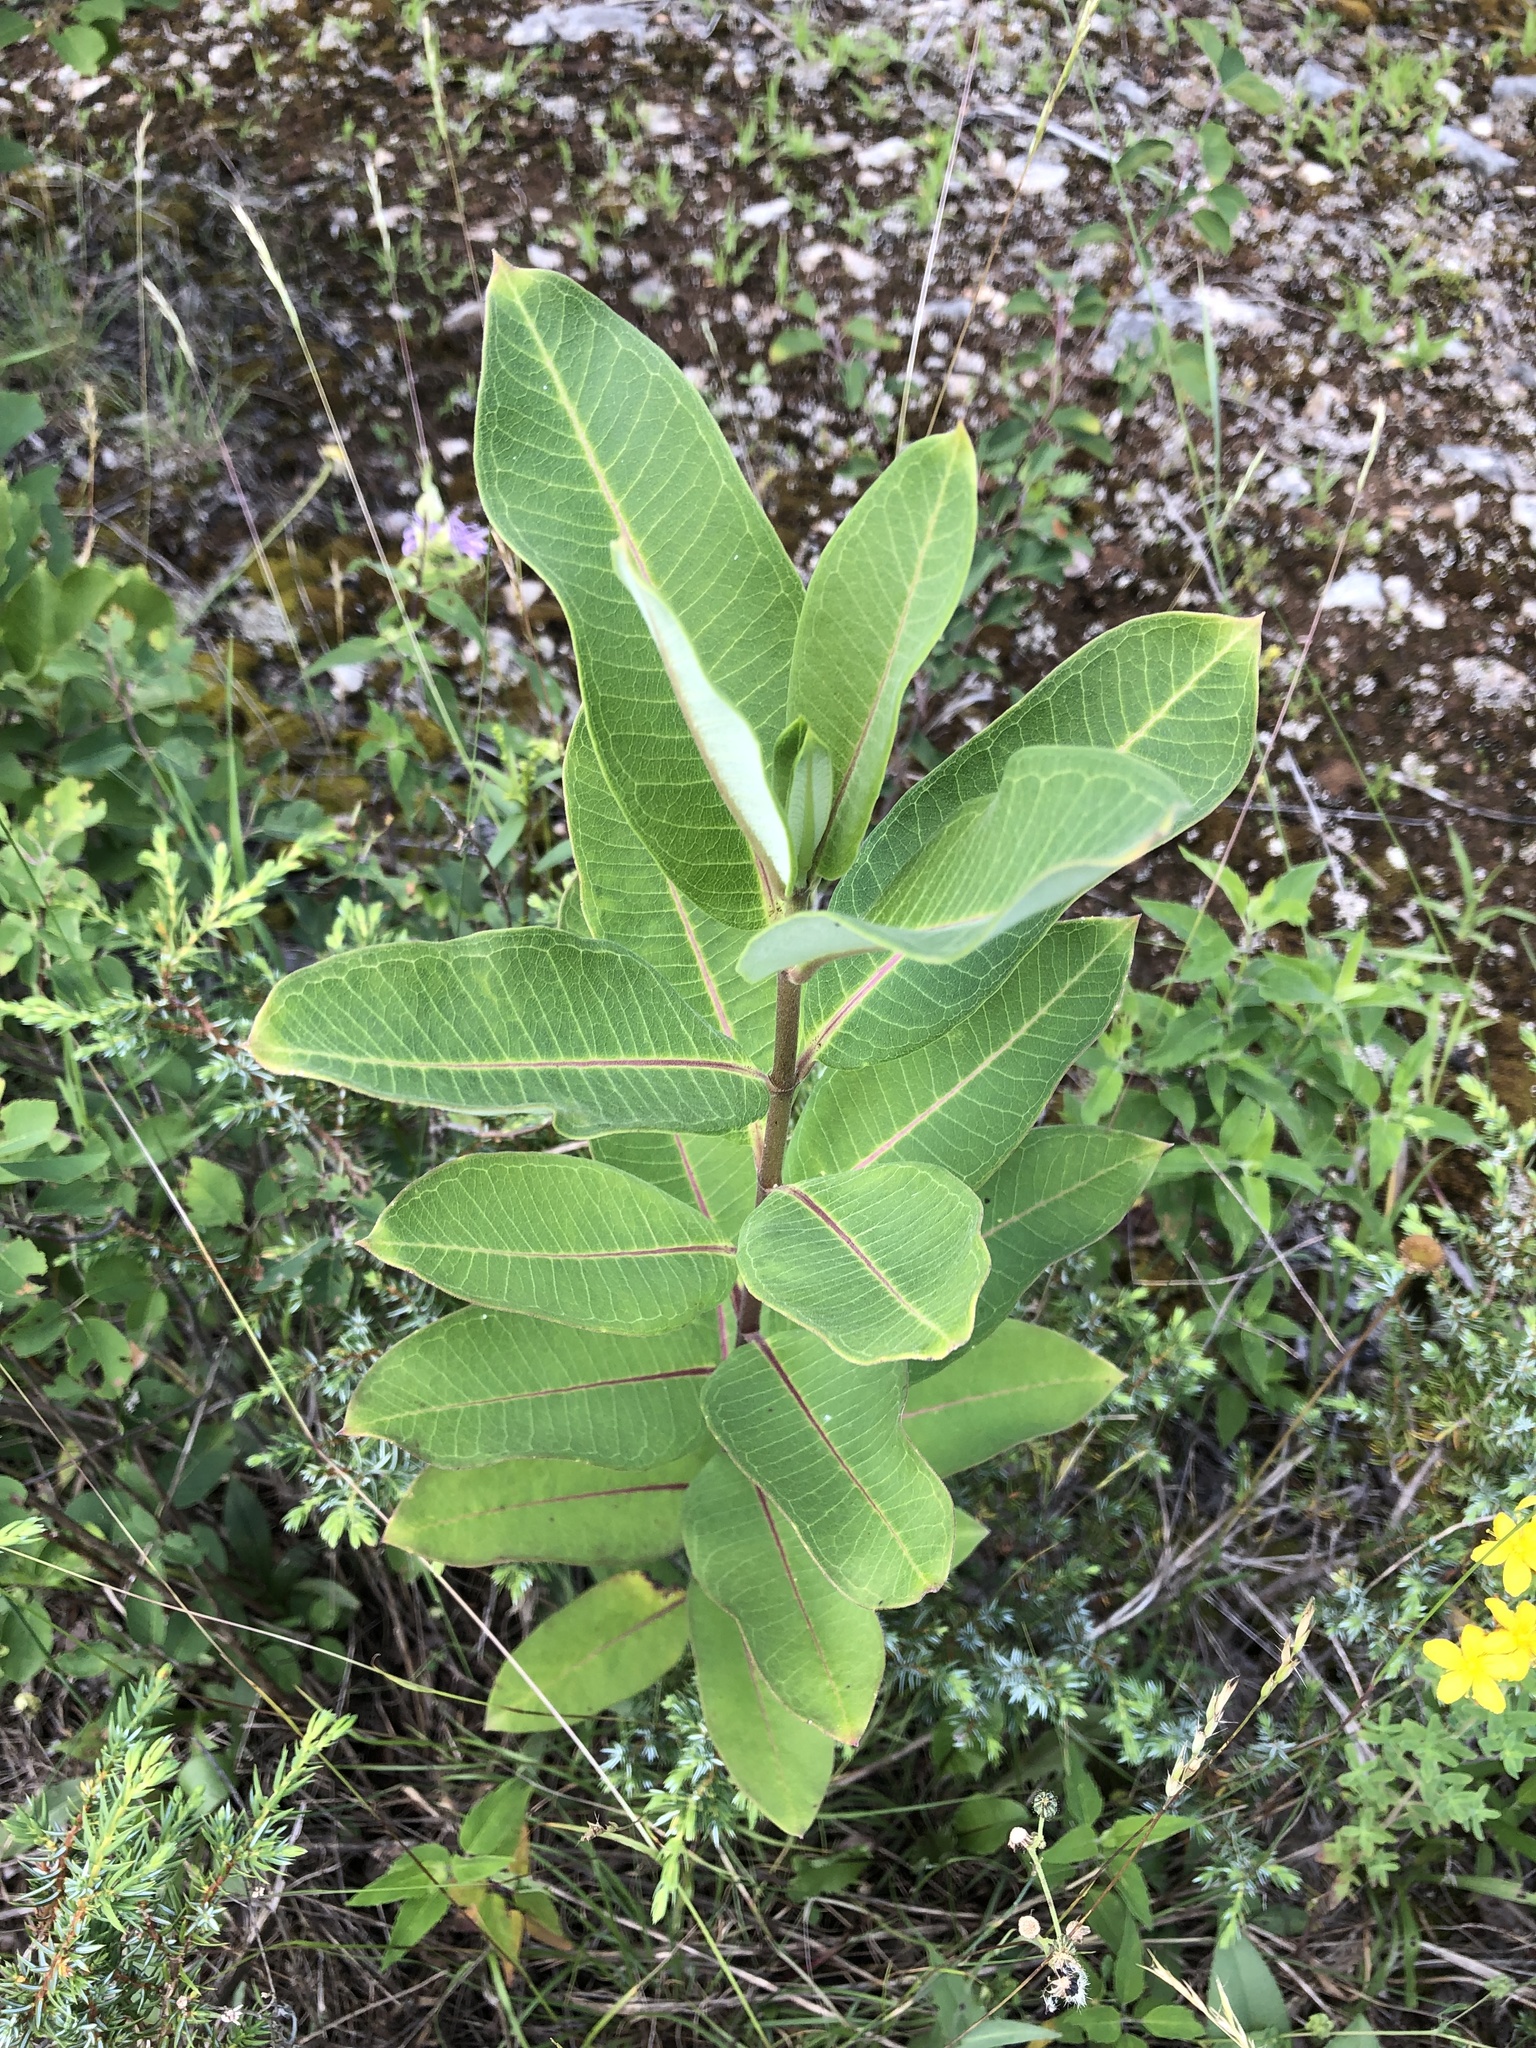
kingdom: Plantae
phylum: Tracheophyta
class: Magnoliopsida
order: Gentianales
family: Apocynaceae
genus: Asclepias
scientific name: Asclepias syriaca
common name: Common milkweed
